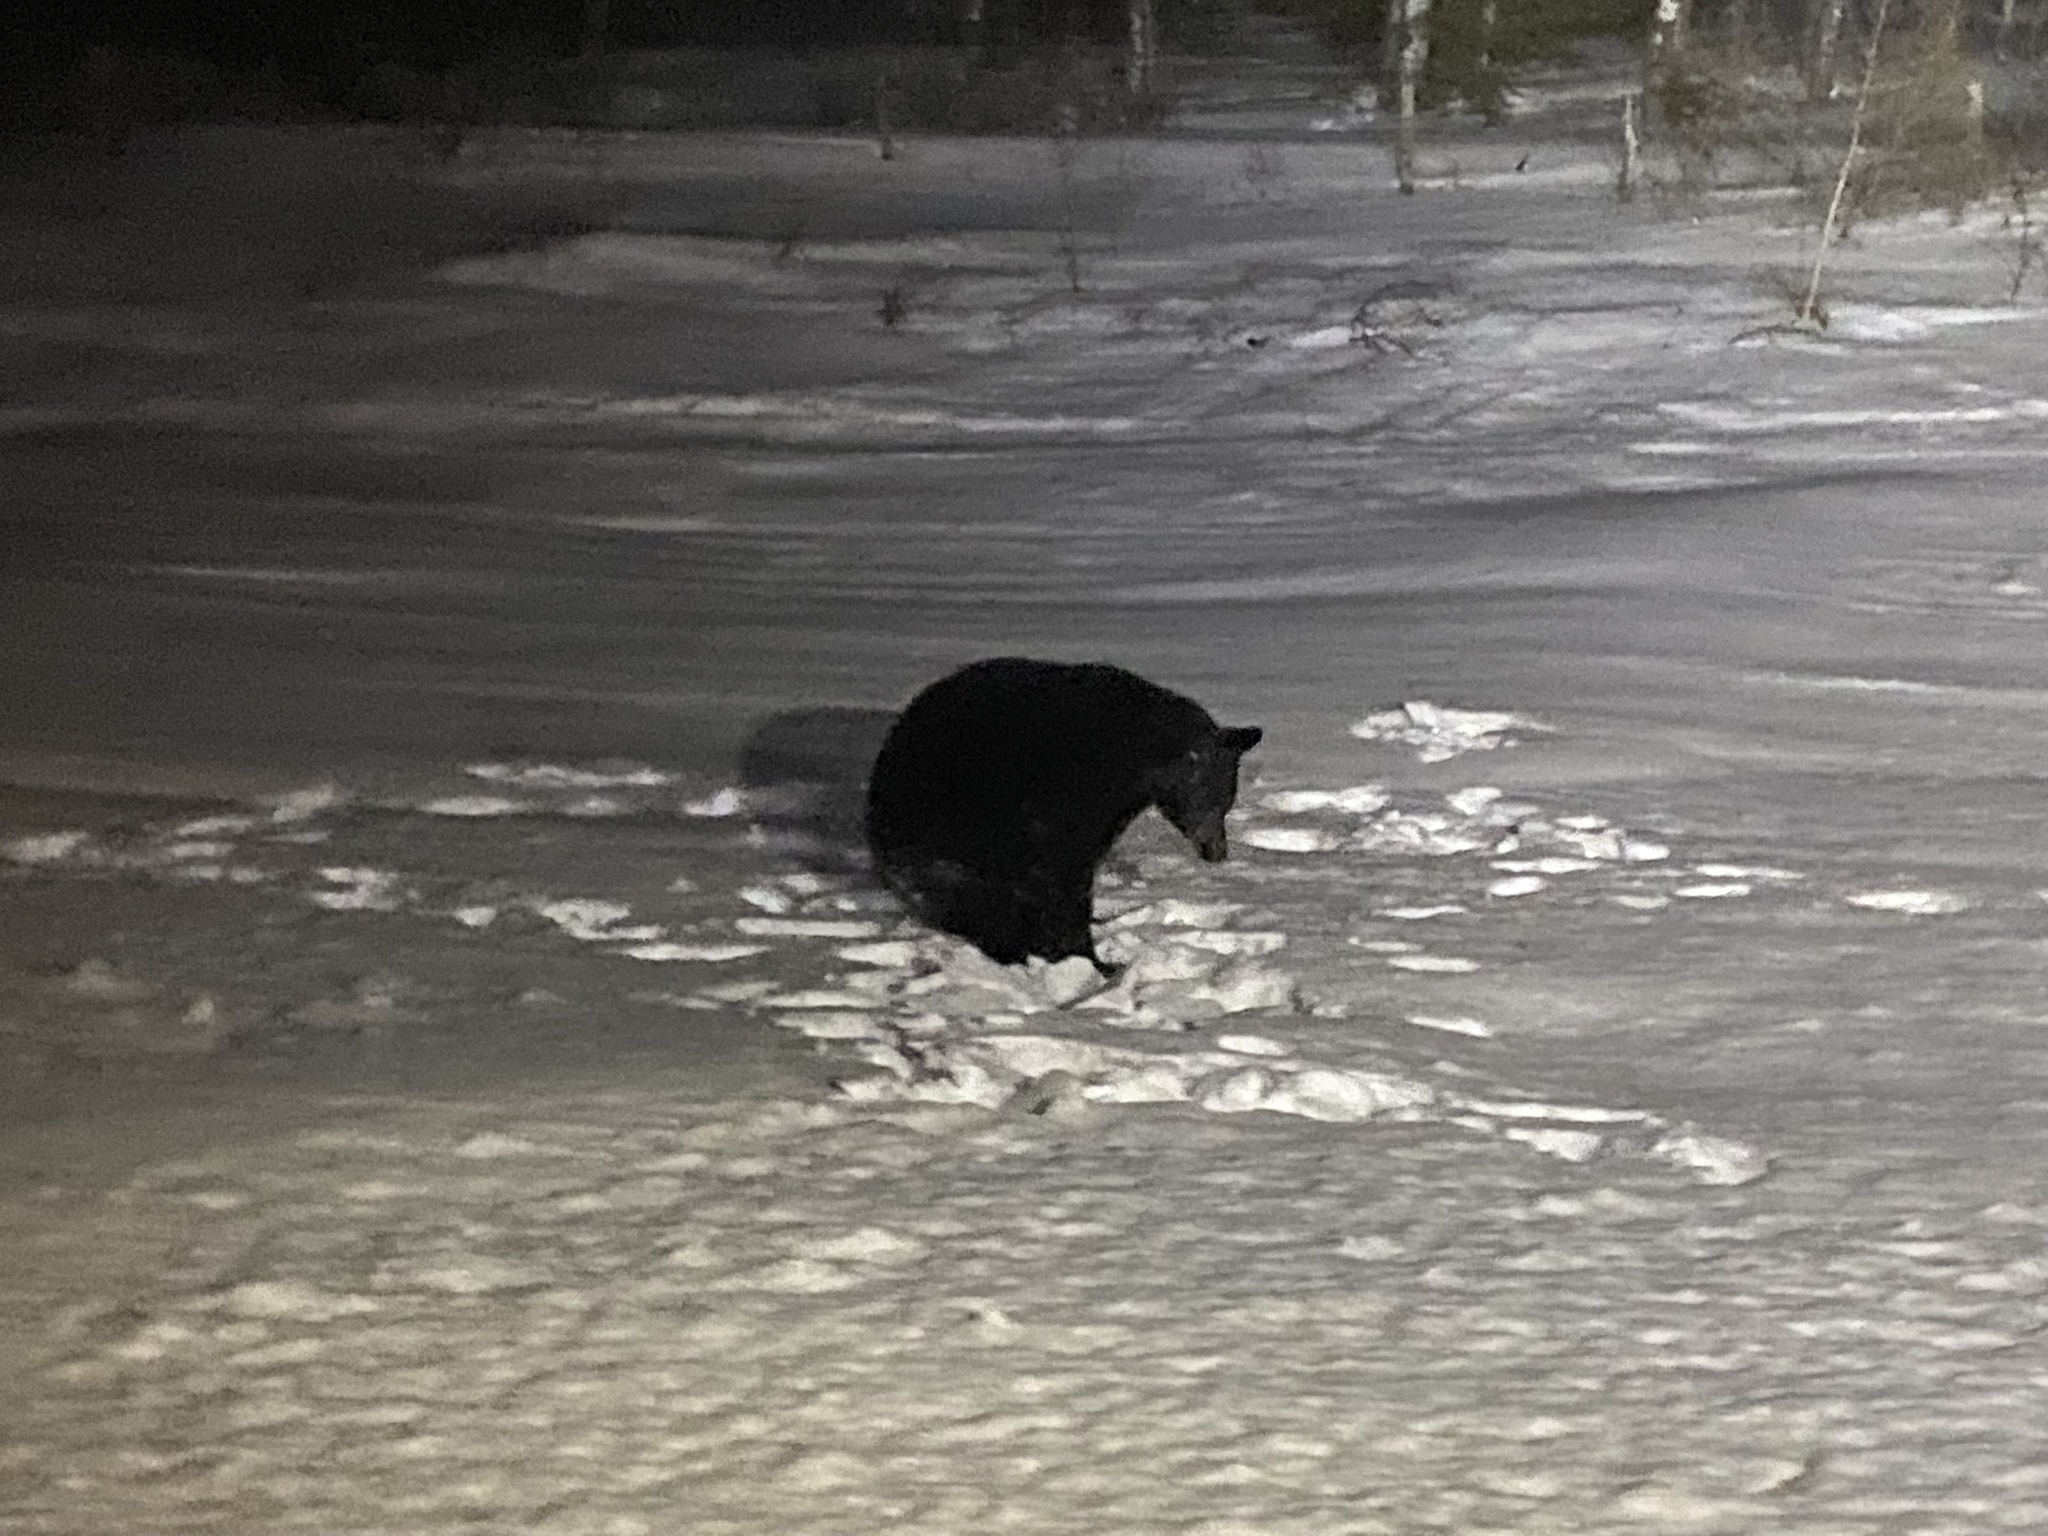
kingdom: Animalia
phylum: Chordata
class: Mammalia
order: Carnivora
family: Ursidae
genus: Ursus
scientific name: Ursus americanus
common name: American black bear
